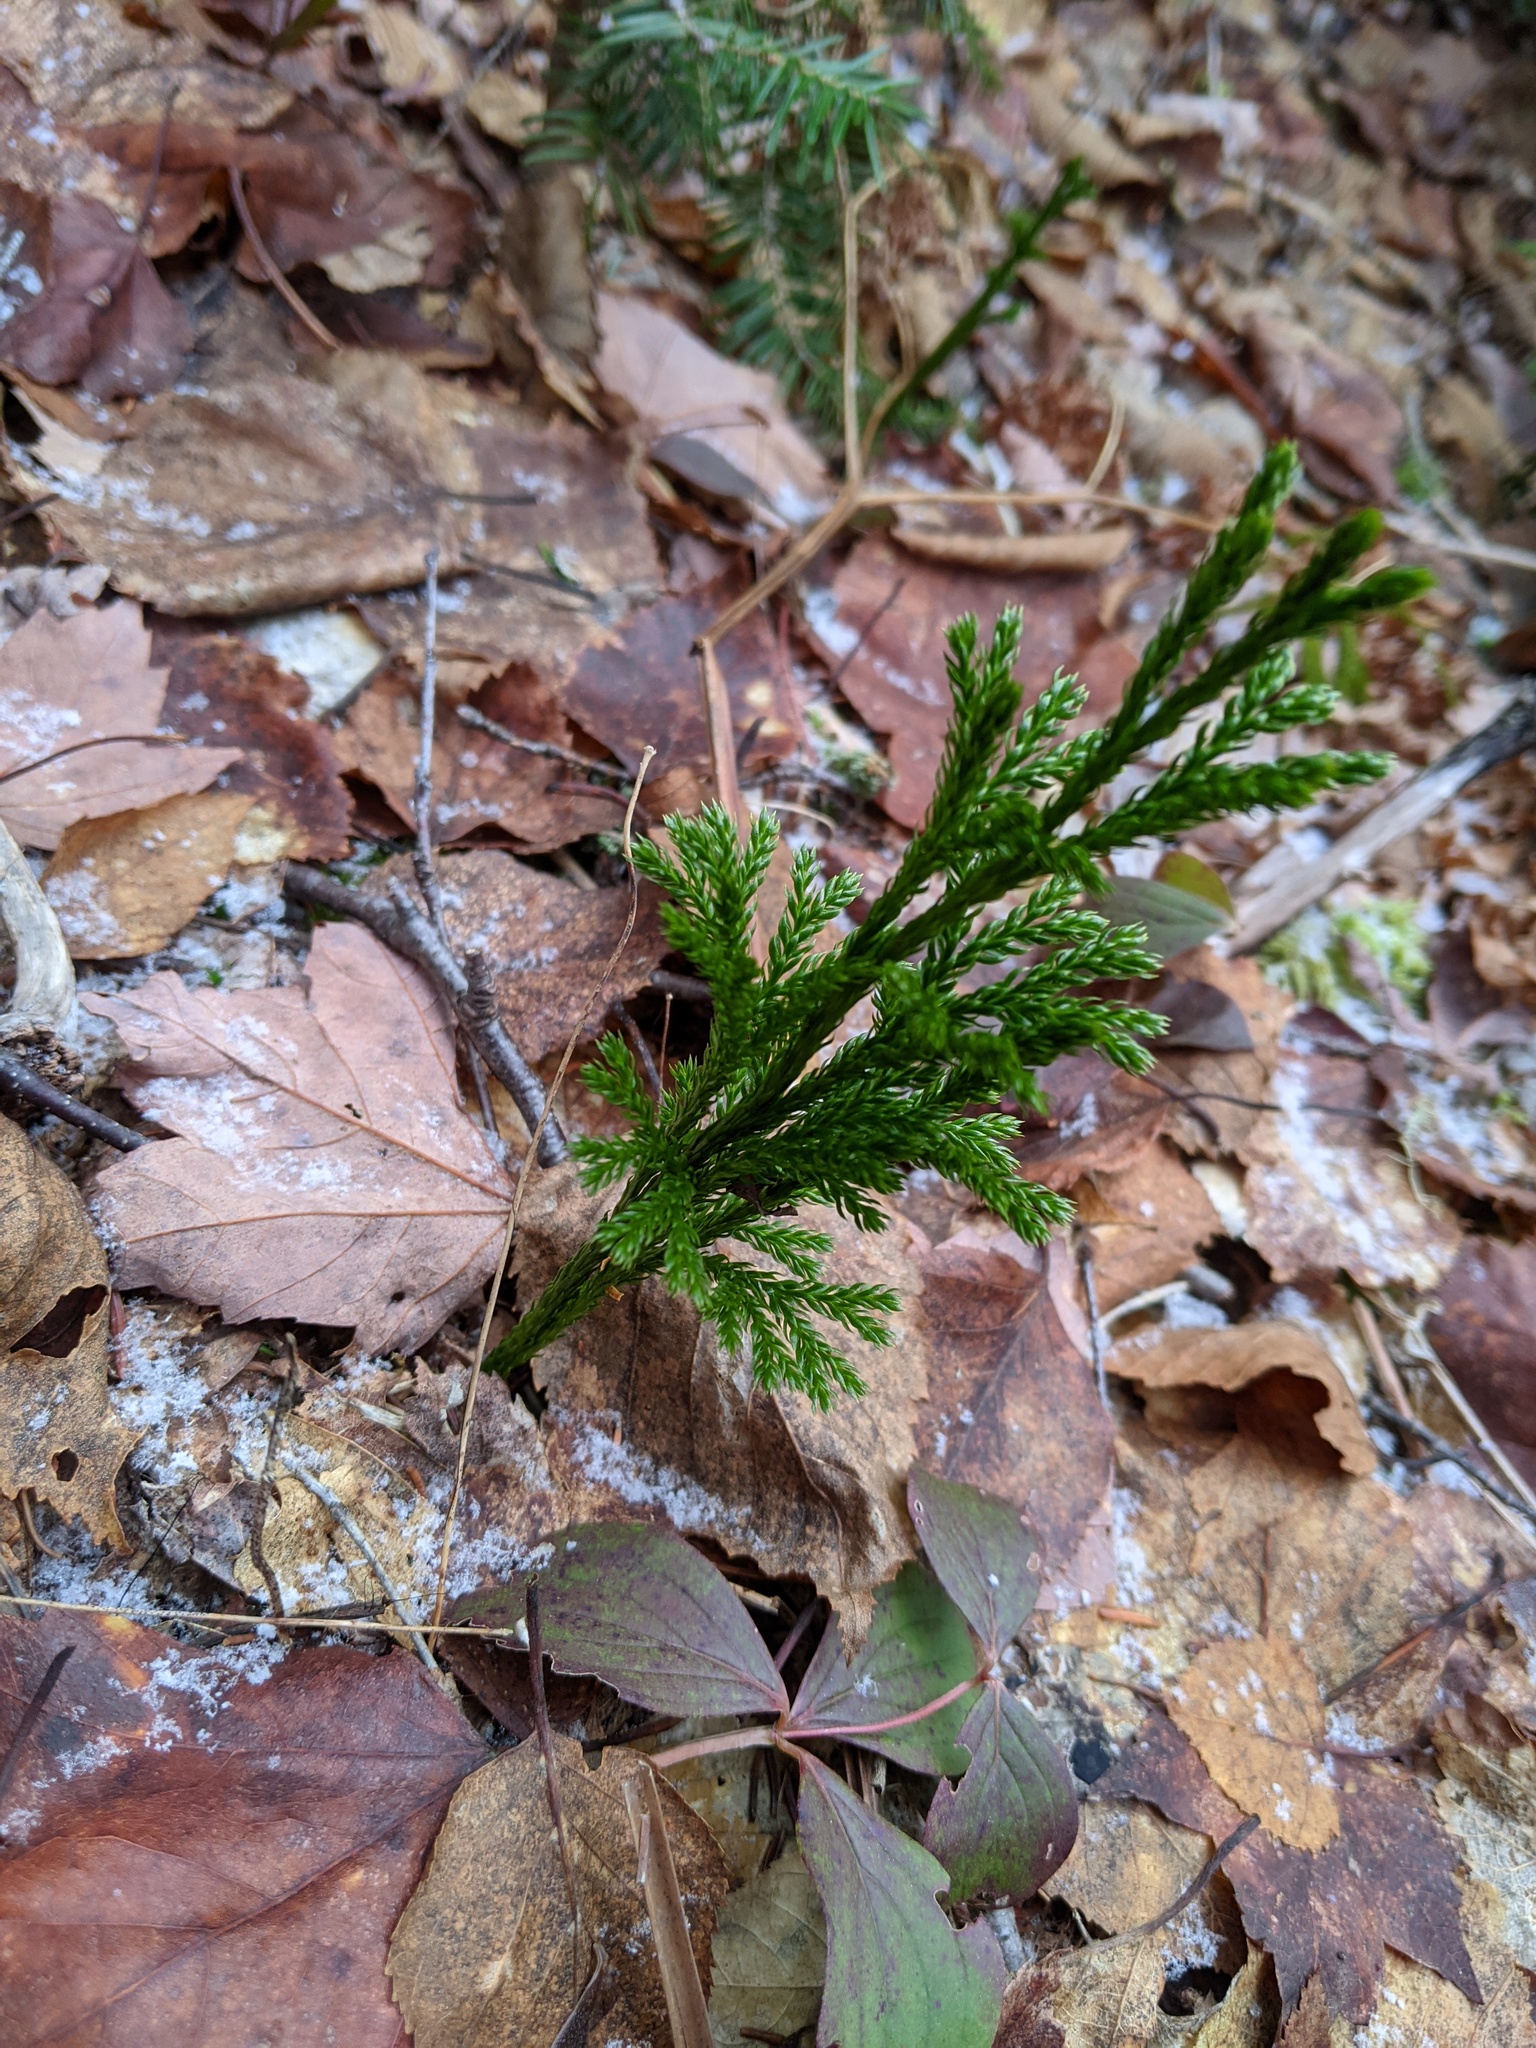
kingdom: Plantae
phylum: Tracheophyta
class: Lycopodiopsida
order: Lycopodiales
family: Lycopodiaceae
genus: Dendrolycopodium
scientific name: Dendrolycopodium hickeyi
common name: Hickey's clubmoss
